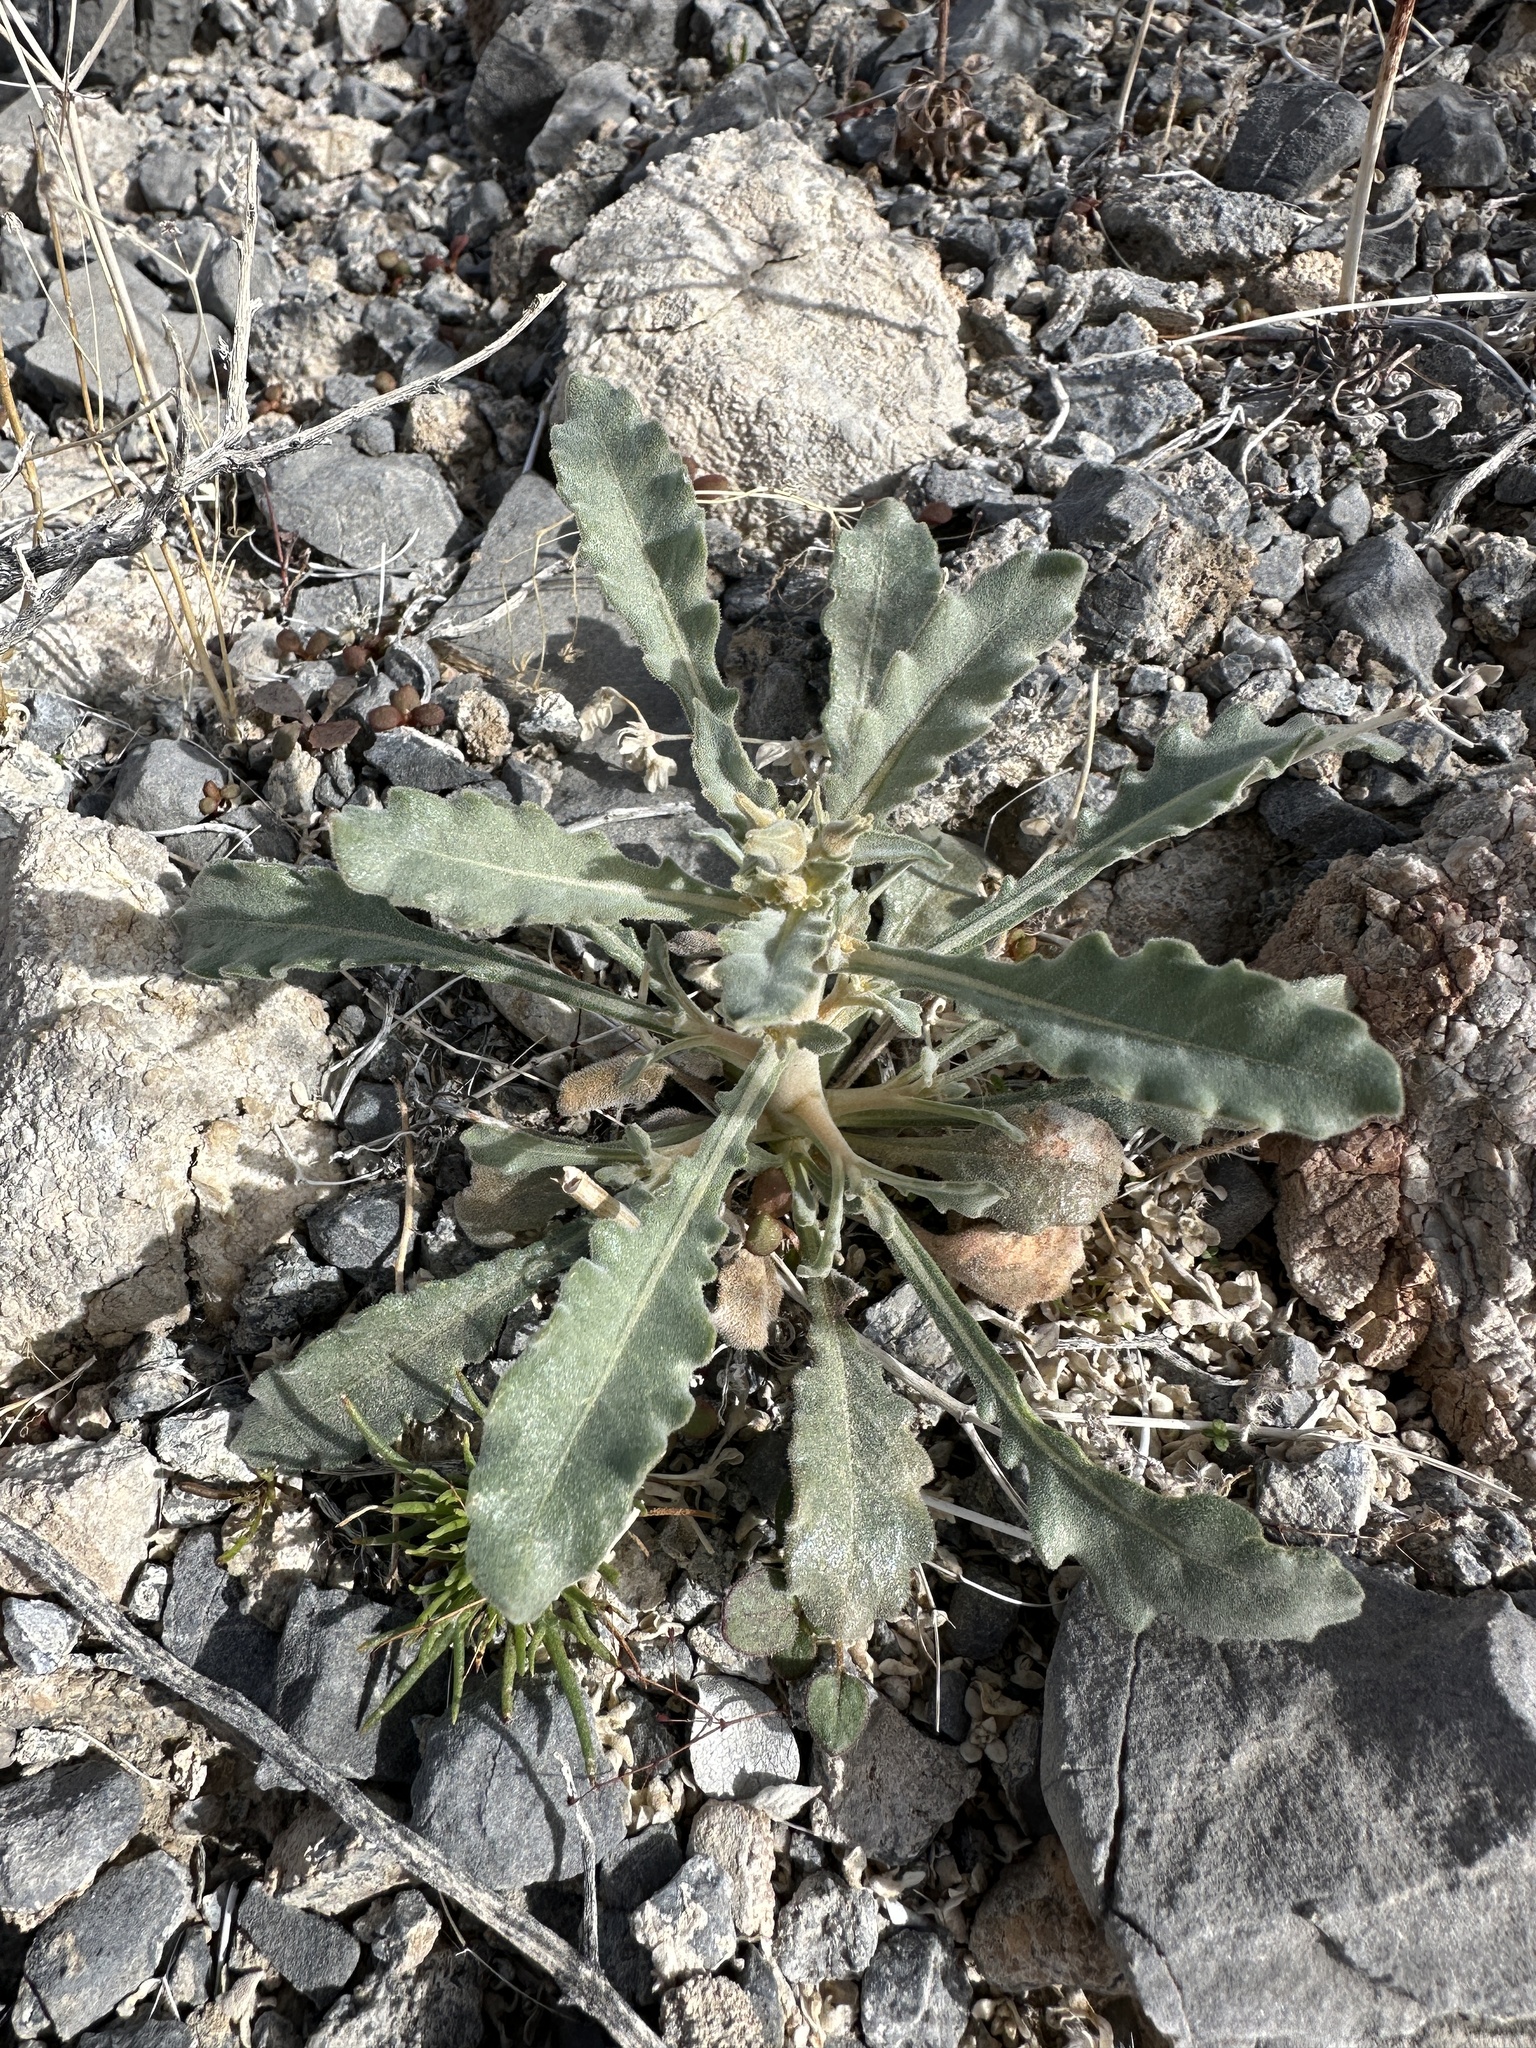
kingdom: Plantae
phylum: Tracheophyta
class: Magnoliopsida
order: Cornales
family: Loasaceae
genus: Mentzelia
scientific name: Mentzelia oreophila
